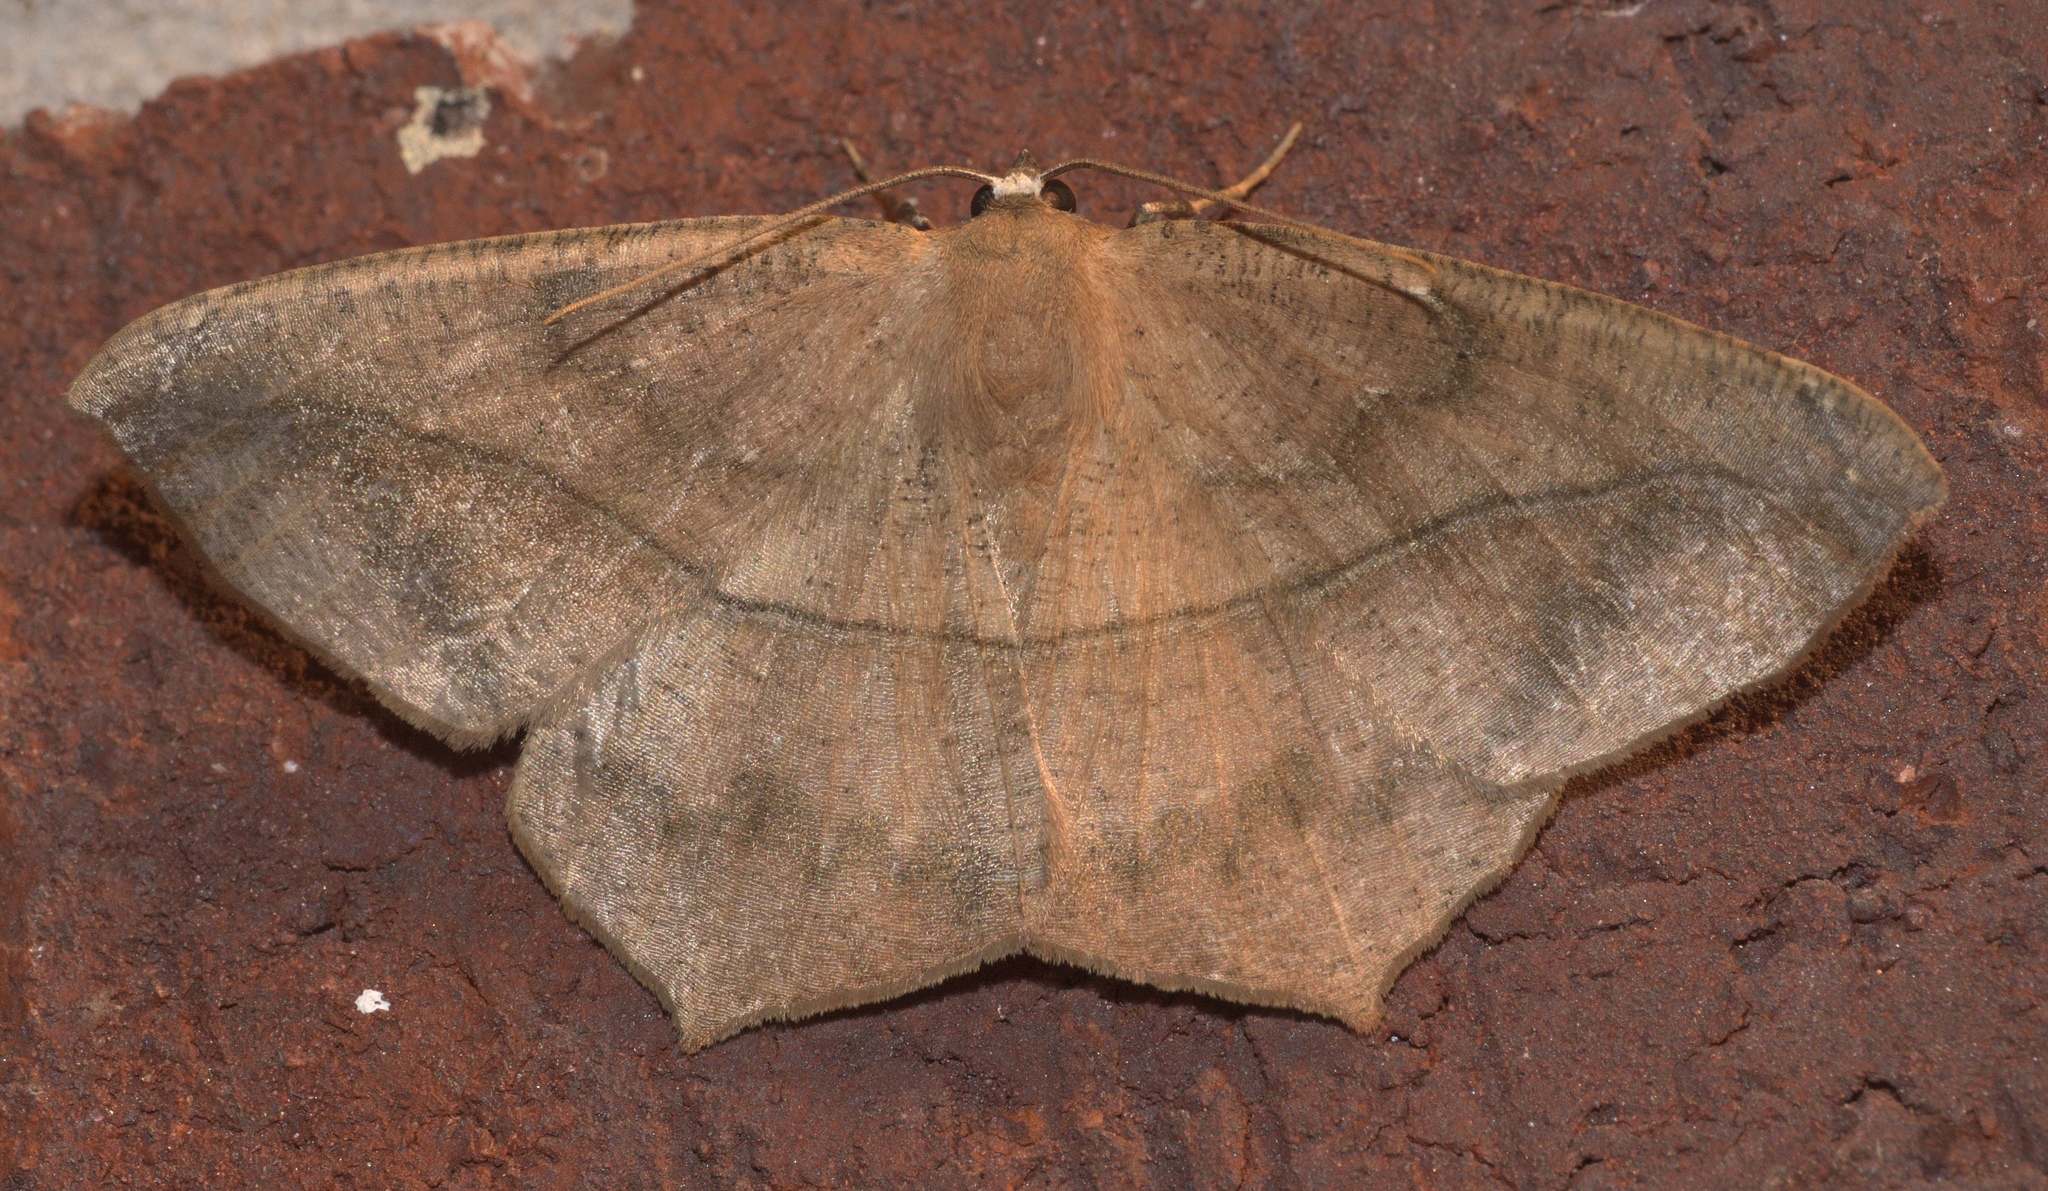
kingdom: Animalia
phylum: Arthropoda
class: Insecta
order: Lepidoptera
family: Geometridae
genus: Prochoerodes
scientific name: Prochoerodes lineola
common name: Large maple spanworm
